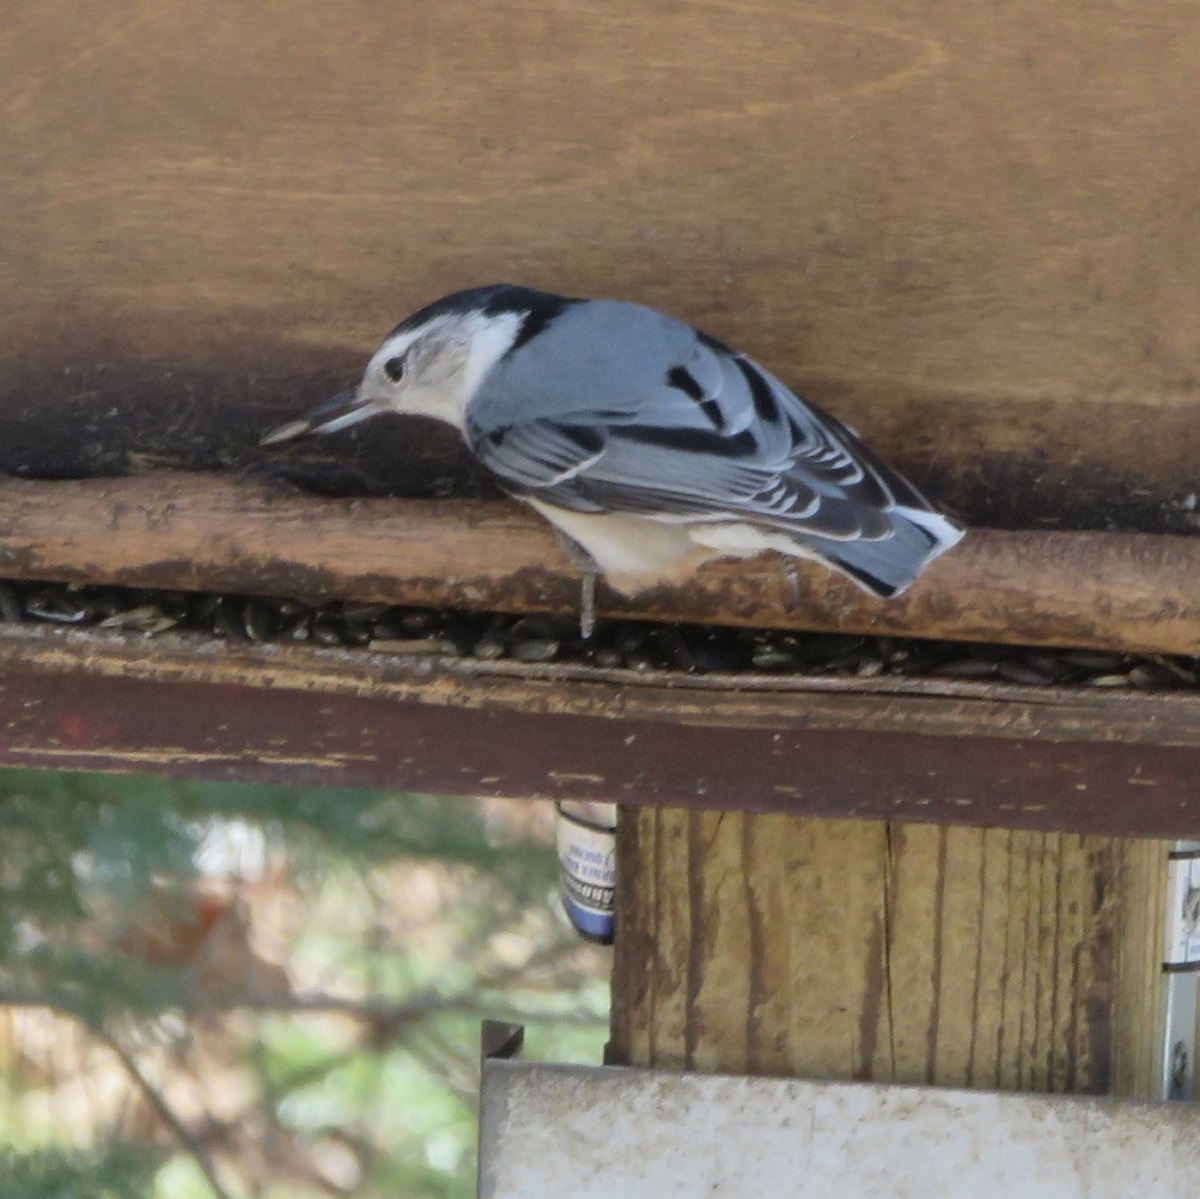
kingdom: Animalia
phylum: Chordata
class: Aves
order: Passeriformes
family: Sittidae
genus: Sitta
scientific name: Sitta carolinensis
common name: White-breasted nuthatch
